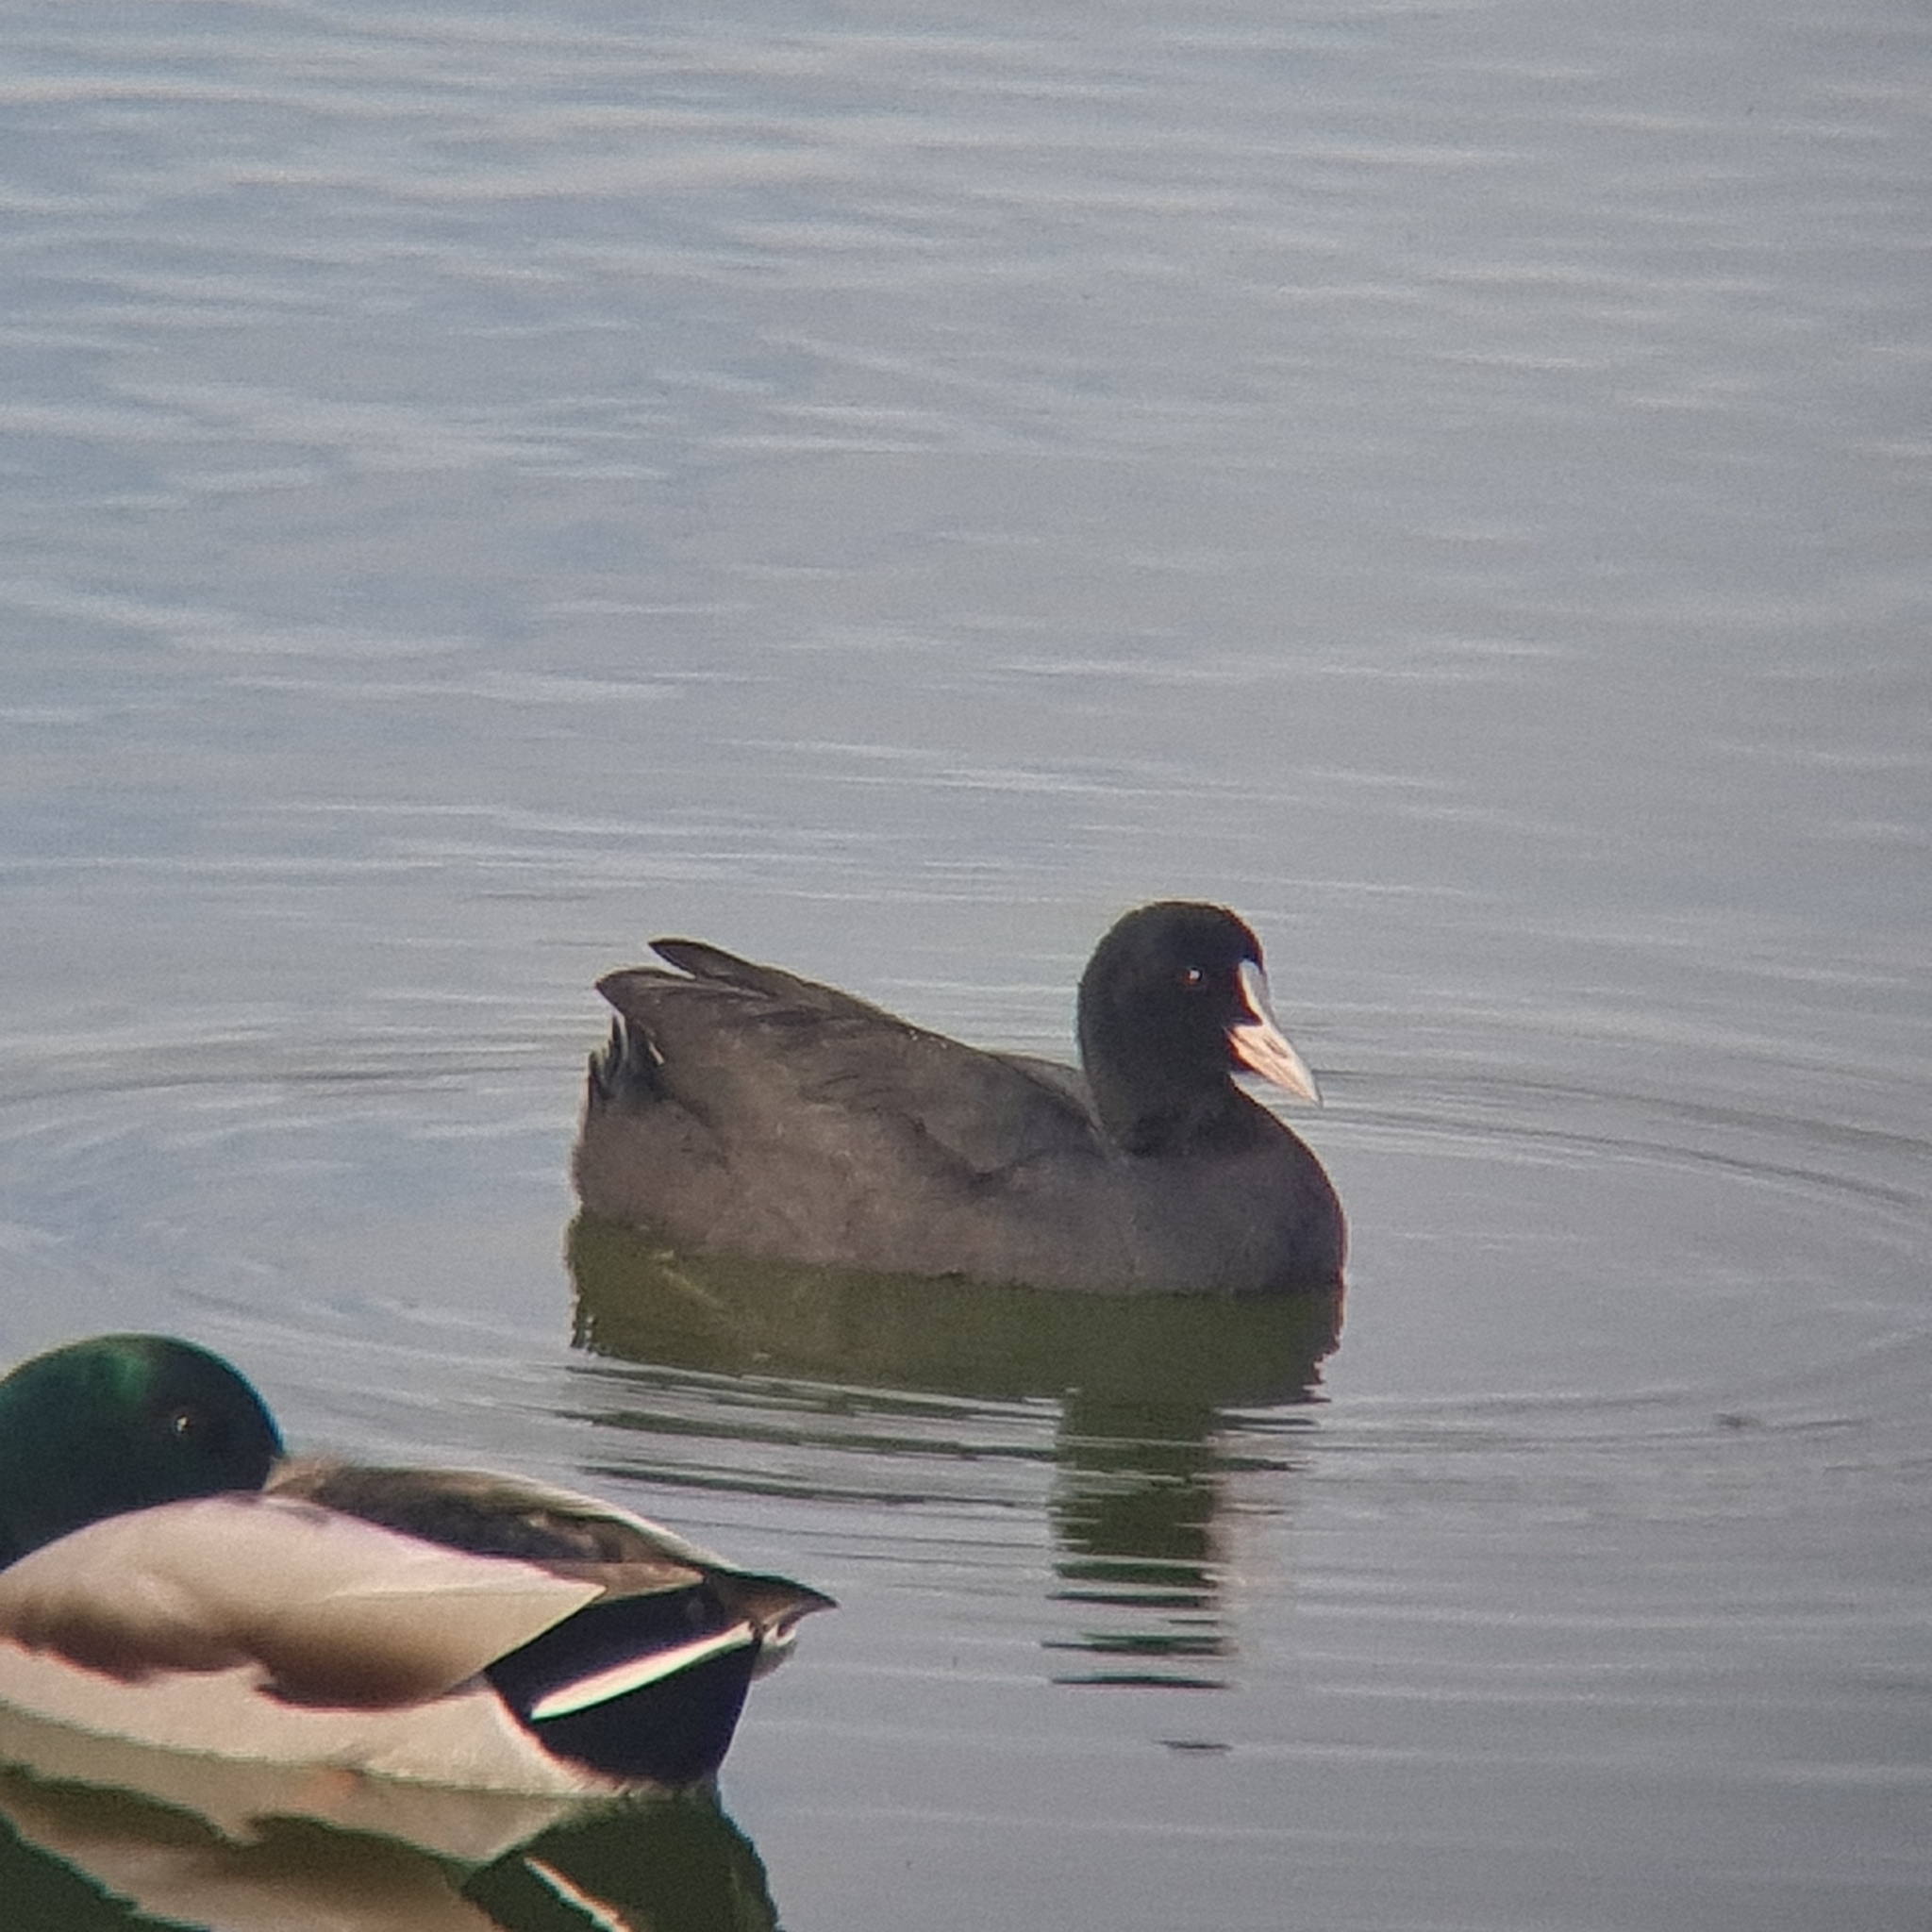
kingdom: Animalia
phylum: Chordata
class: Aves
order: Gruiformes
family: Rallidae
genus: Fulica
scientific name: Fulica atra
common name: Eurasian coot
